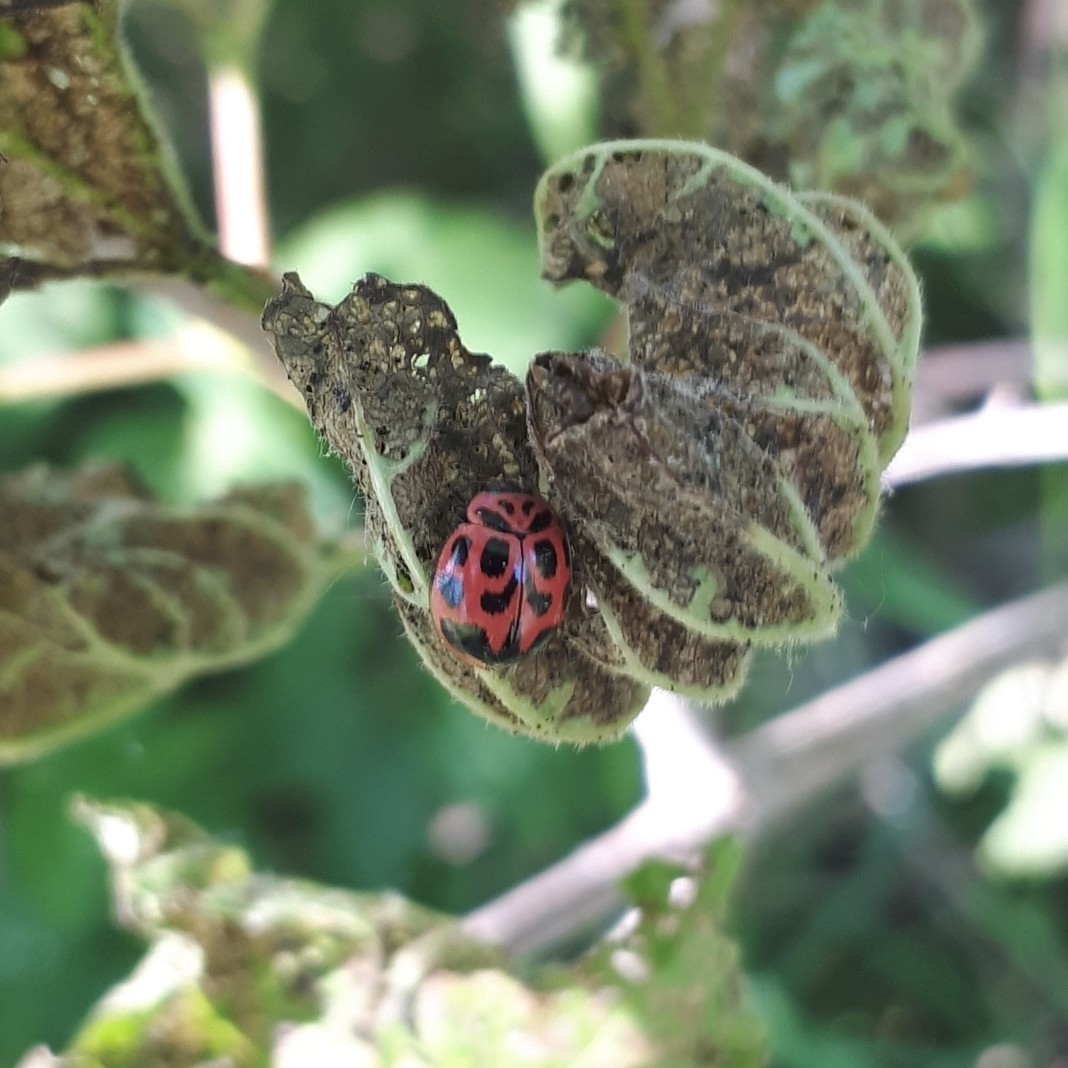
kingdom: Animalia
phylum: Arthropoda
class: Insecta
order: Coleoptera
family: Coccinellidae
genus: Neoharmonia
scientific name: Neoharmonia venusta
